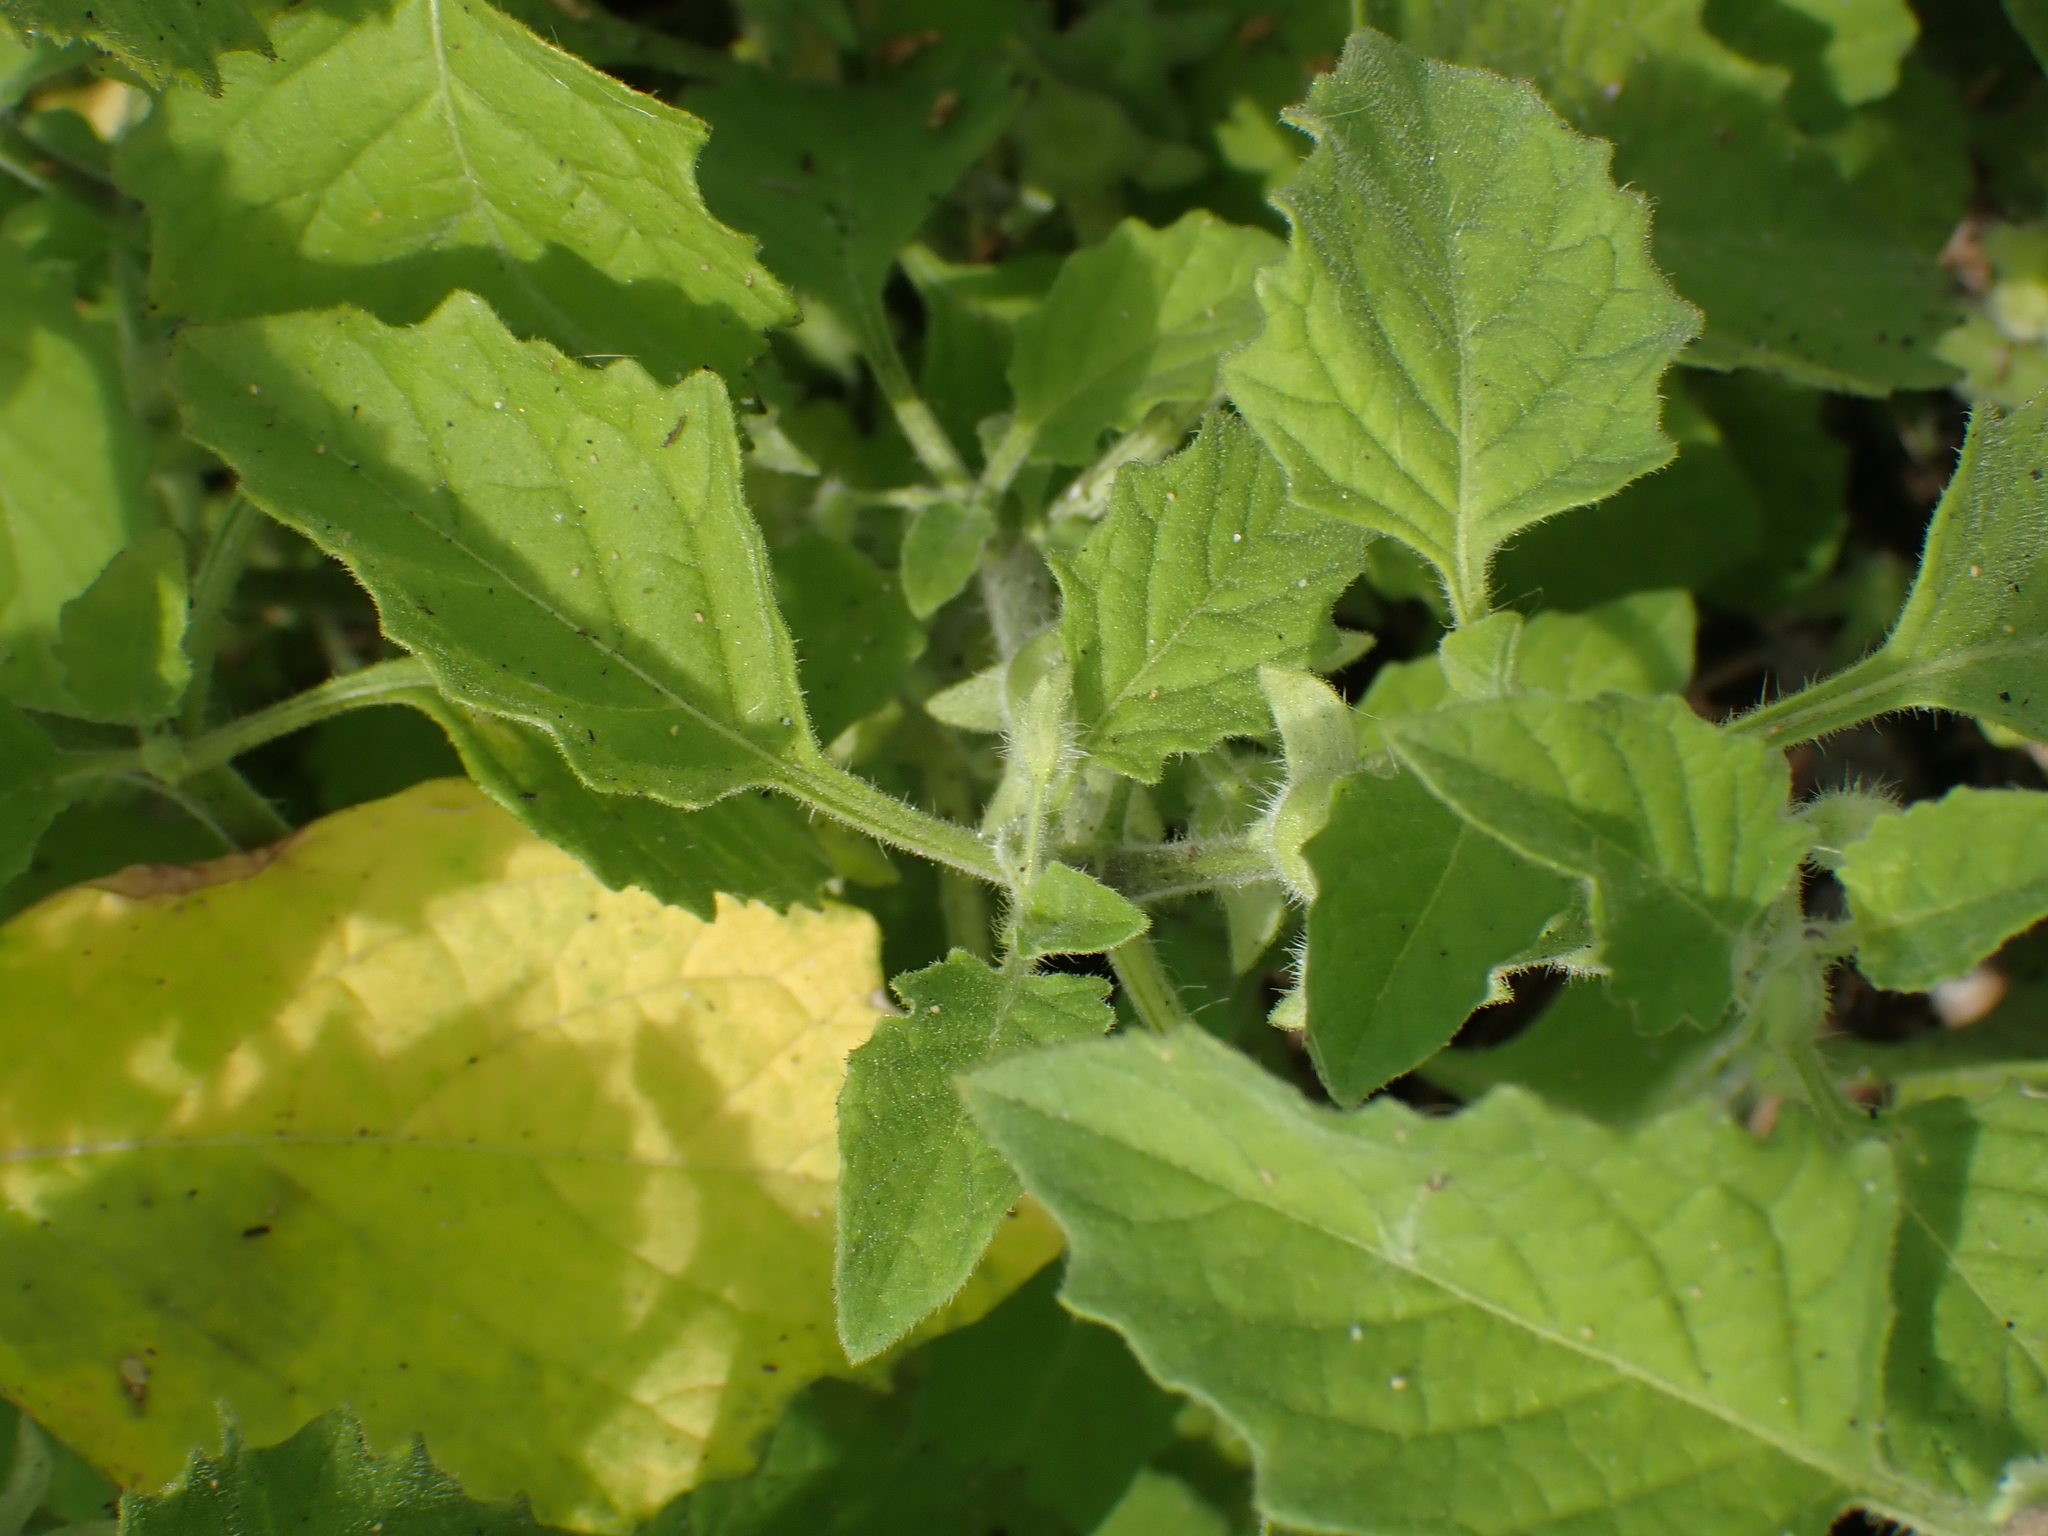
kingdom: Plantae
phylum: Tracheophyta
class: Magnoliopsida
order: Solanales
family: Solanaceae
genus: Solanum
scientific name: Solanum sarrachoides
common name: Leafy-fruited nightshade
